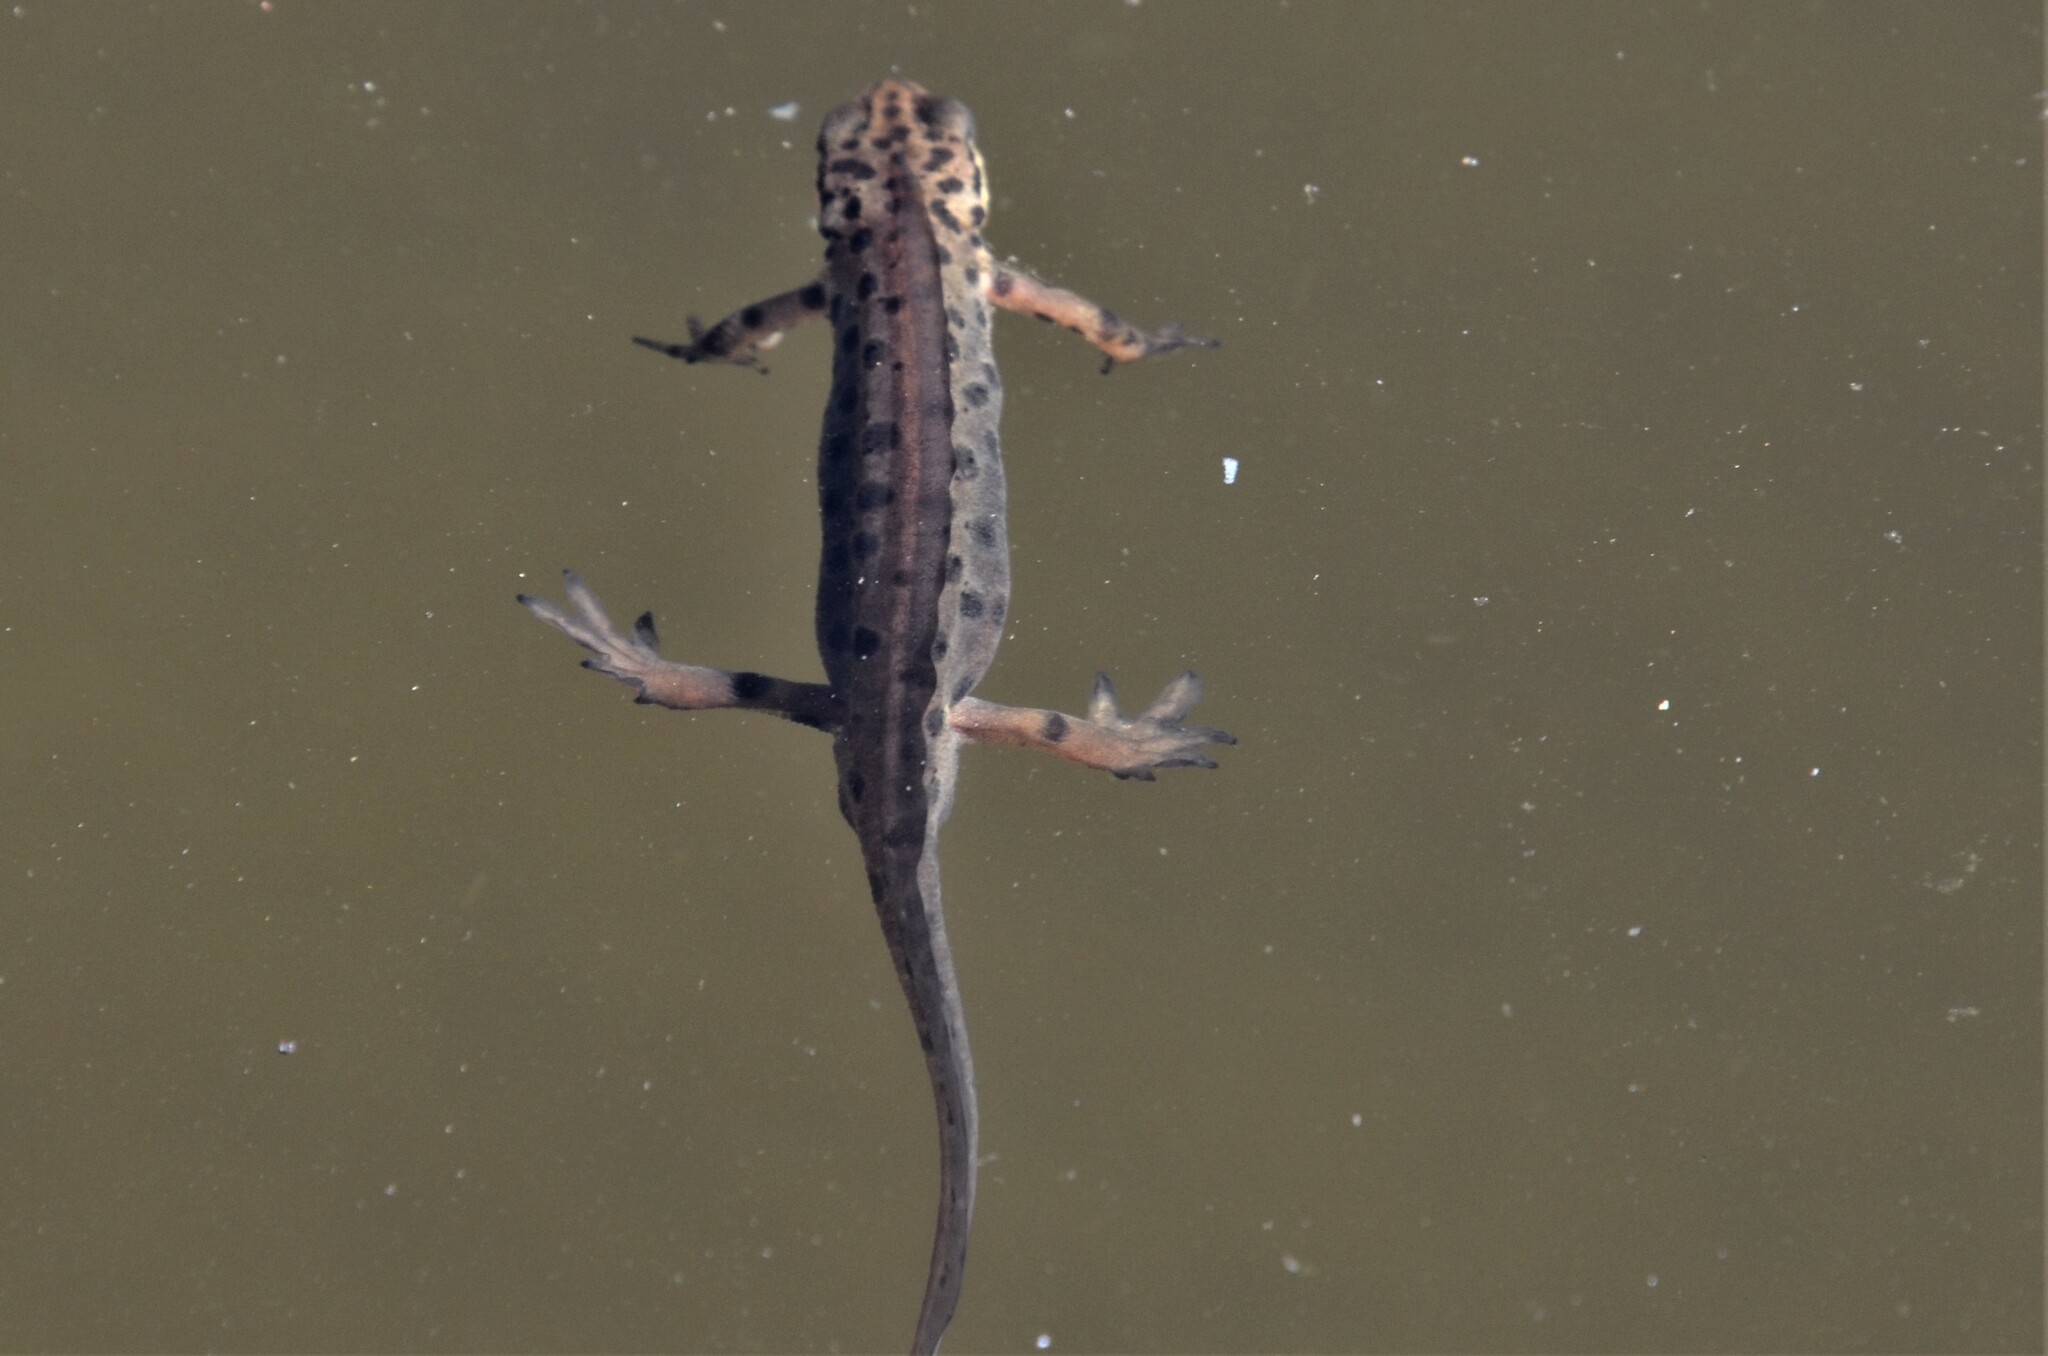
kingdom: Animalia
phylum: Chordata
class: Amphibia
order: Caudata
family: Salamandridae
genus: Lissotriton
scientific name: Lissotriton vulgaris
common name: Smooth newt
